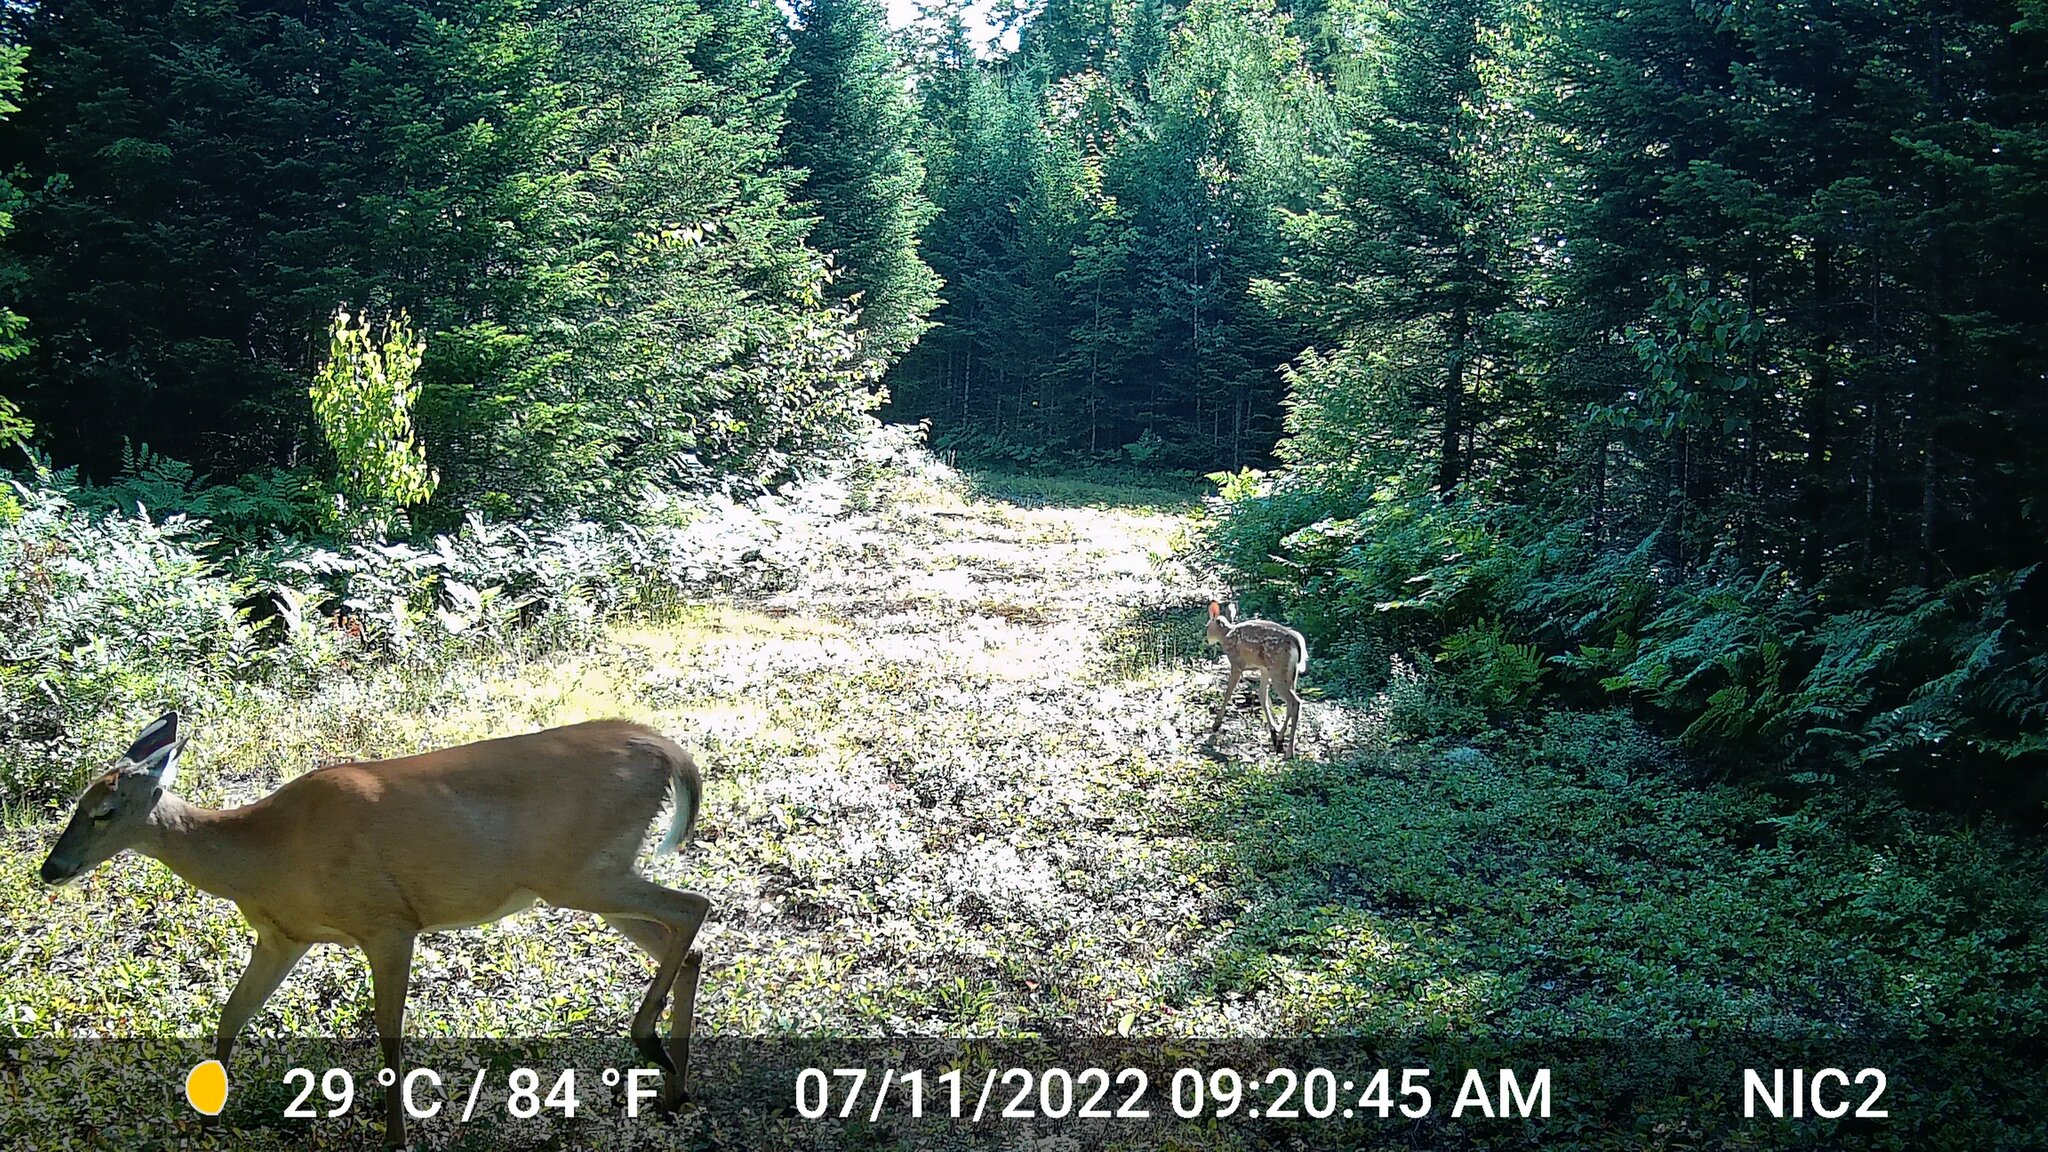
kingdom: Animalia
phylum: Chordata
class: Mammalia
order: Artiodactyla
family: Cervidae
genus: Odocoileus
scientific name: Odocoileus virginianus
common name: White-tailed deer
